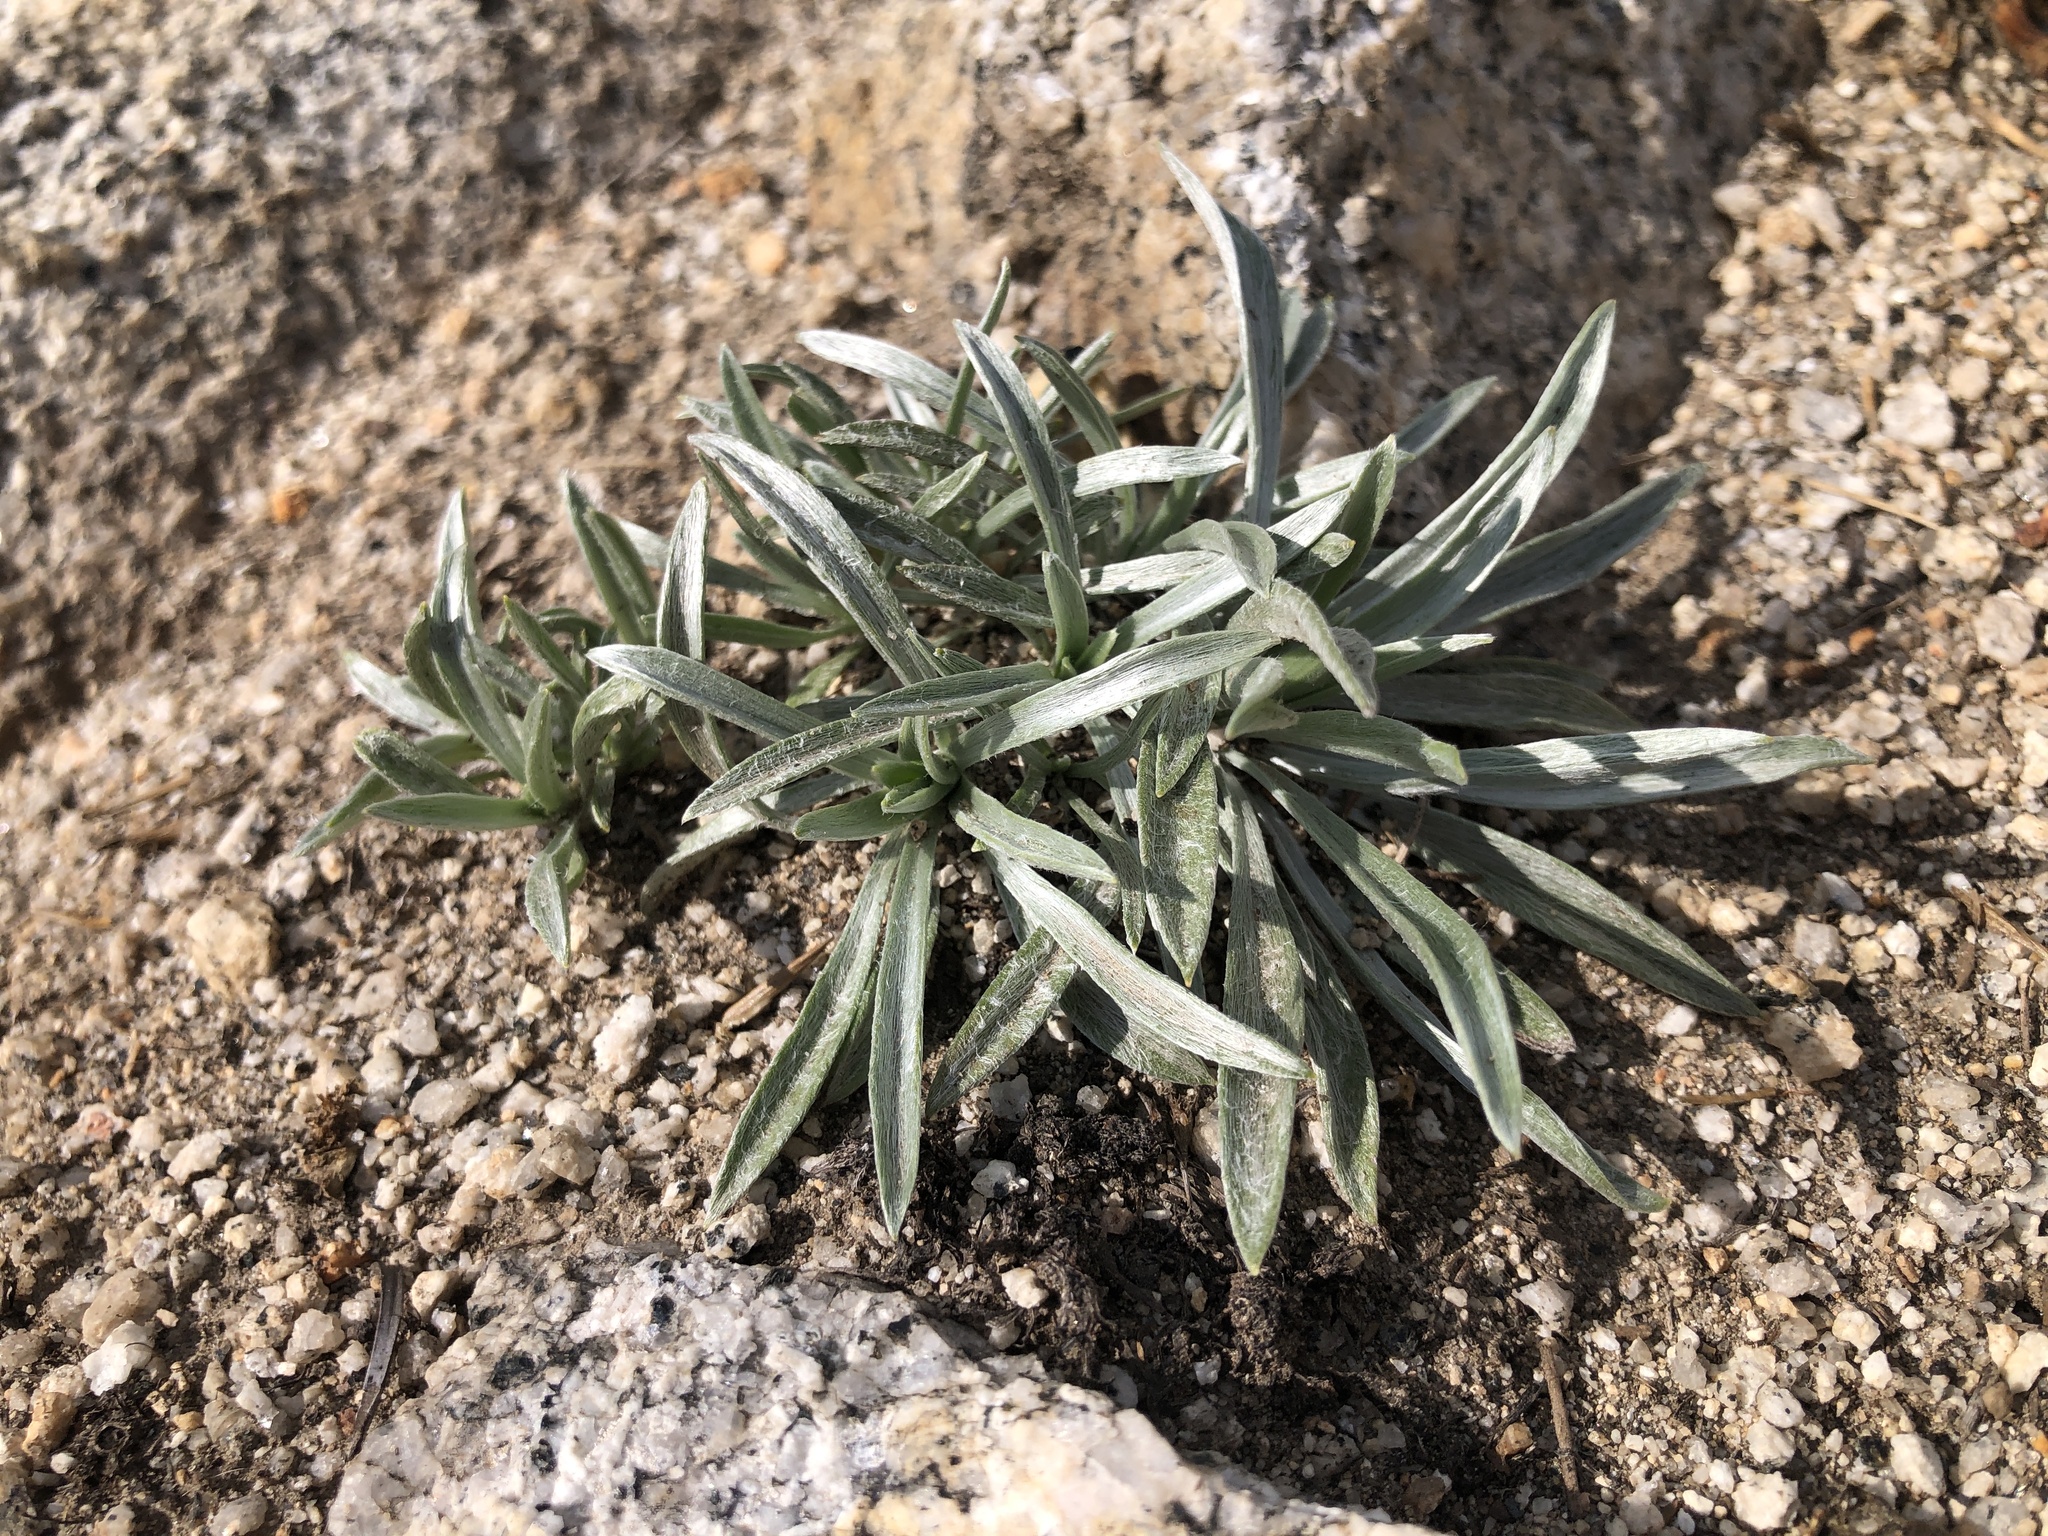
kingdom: Plantae
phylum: Tracheophyta
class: Magnoliopsida
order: Asterales
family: Asteraceae
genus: Raillardella
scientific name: Raillardella argentea
